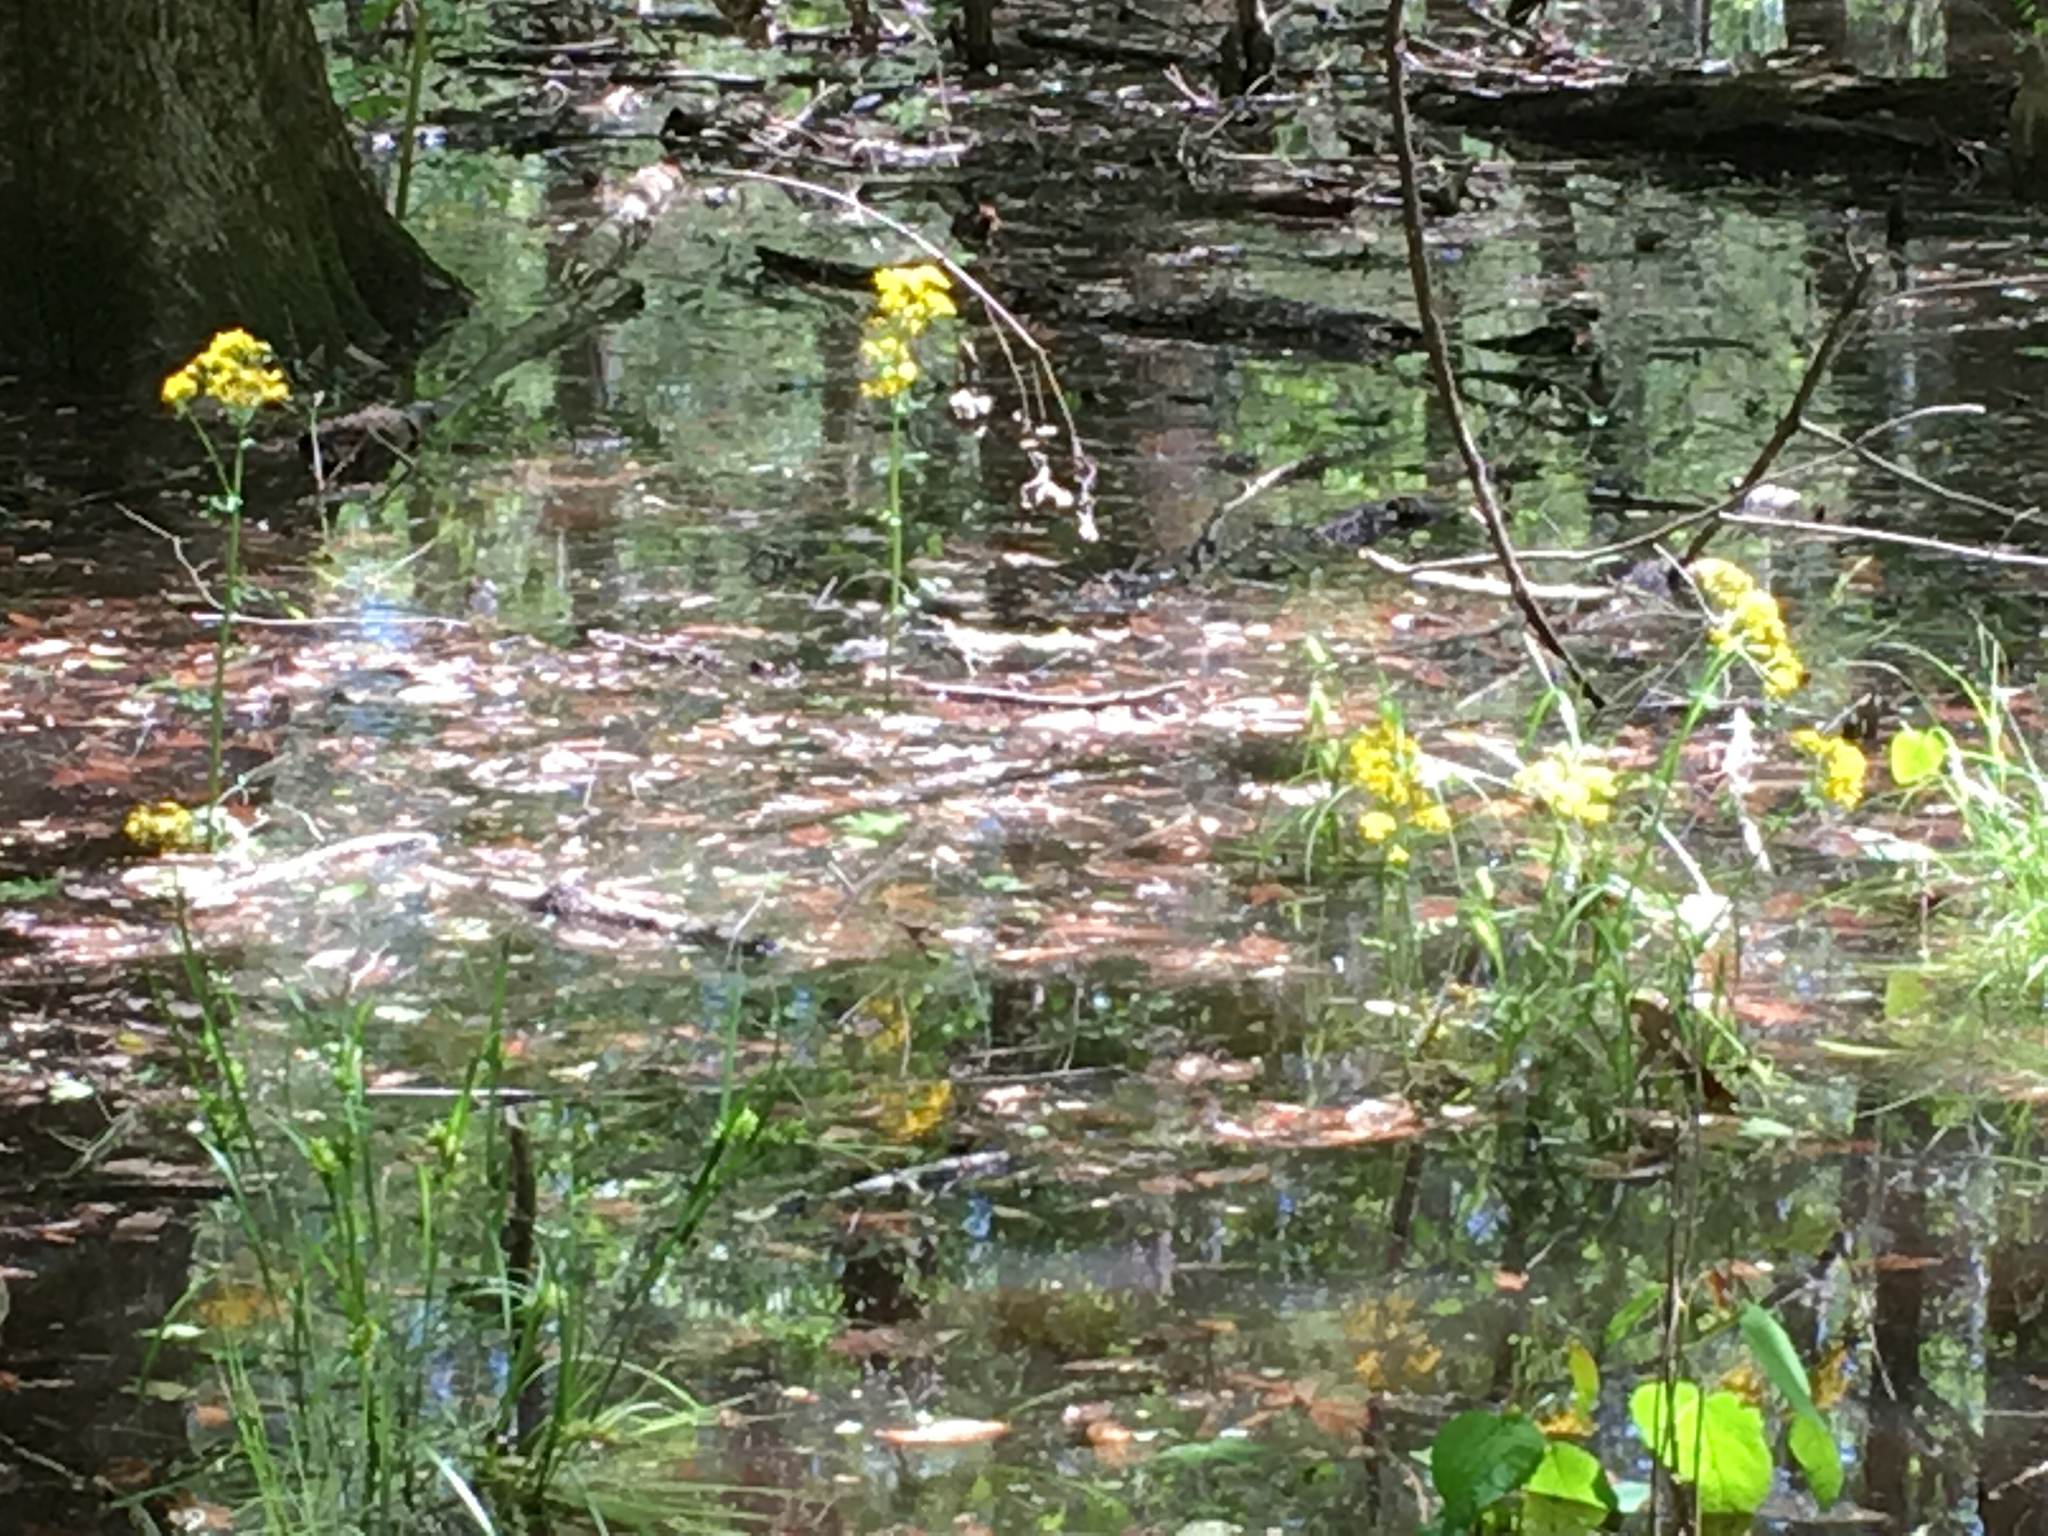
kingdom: Plantae
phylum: Tracheophyta
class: Magnoliopsida
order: Asterales
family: Asteraceae
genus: Packera
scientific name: Packera glabella
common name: Butterweed
